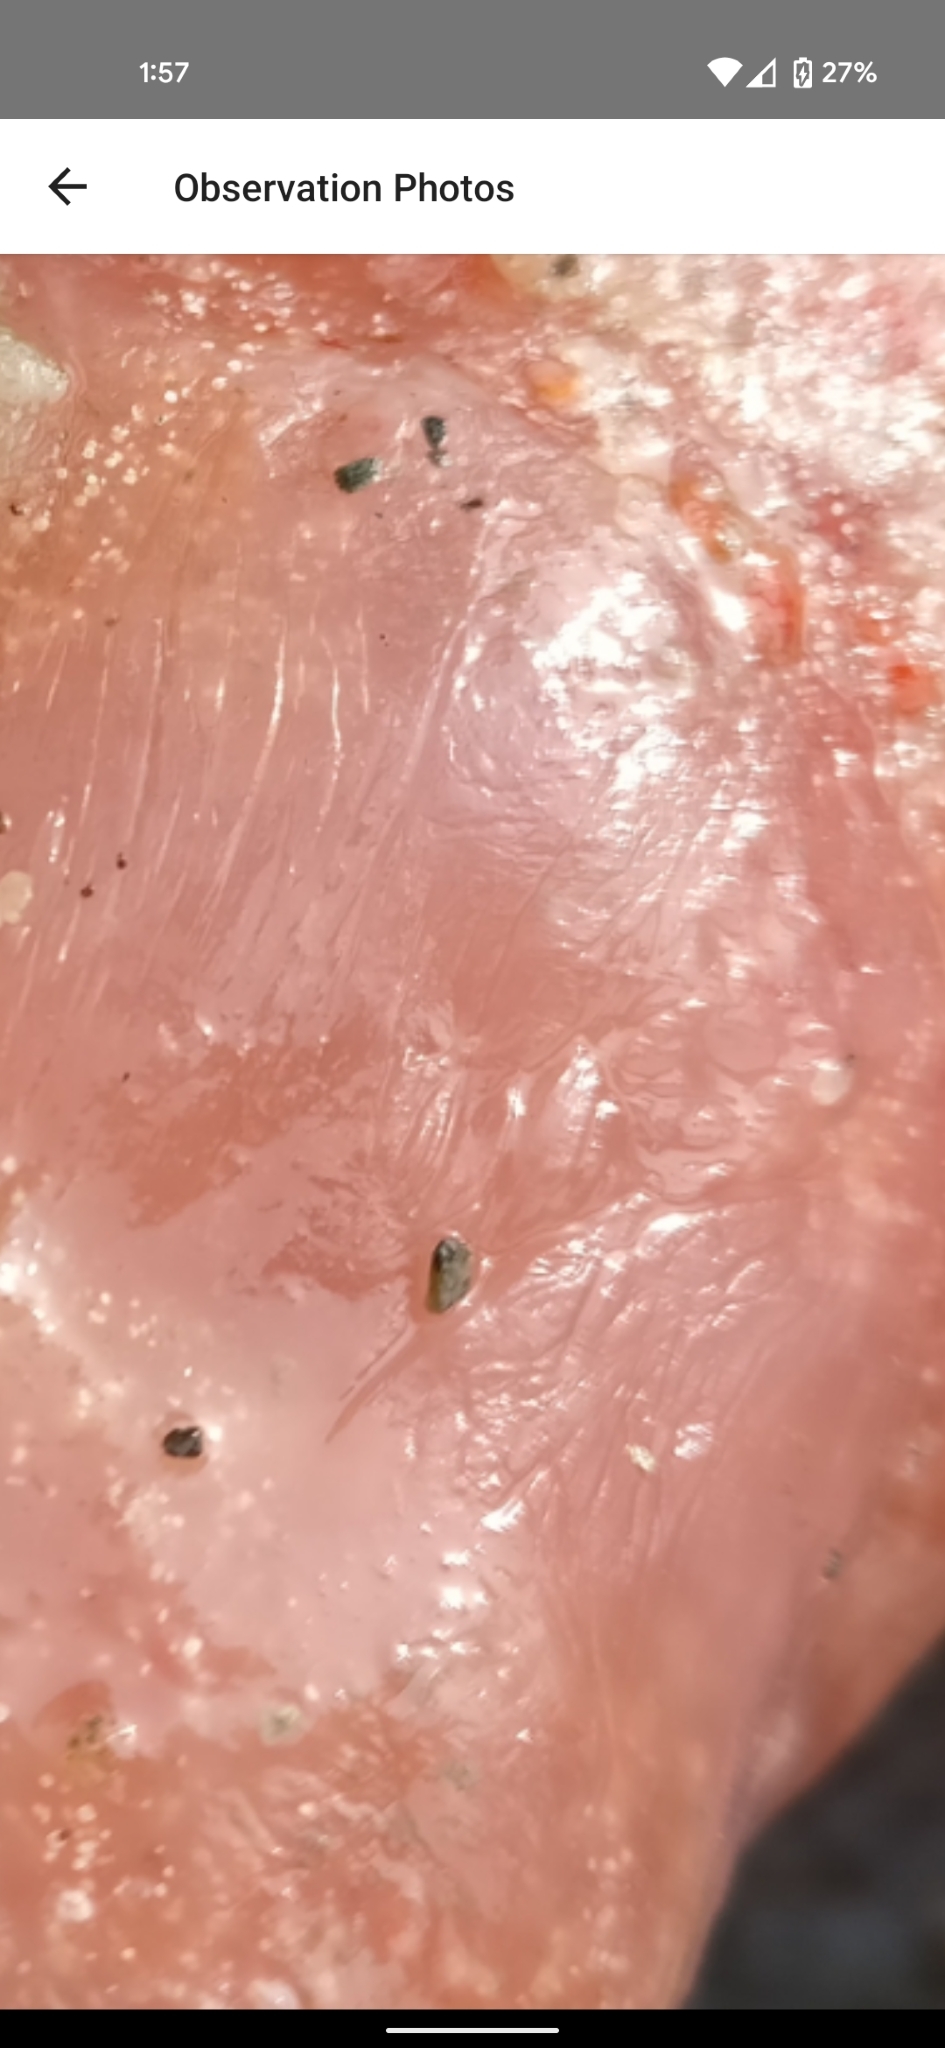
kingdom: Animalia
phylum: Chordata
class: Ascidiacea
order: Aplousobranchia
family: Polyclinidae
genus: Aplidium
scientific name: Aplidium californicum
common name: Sea pork
